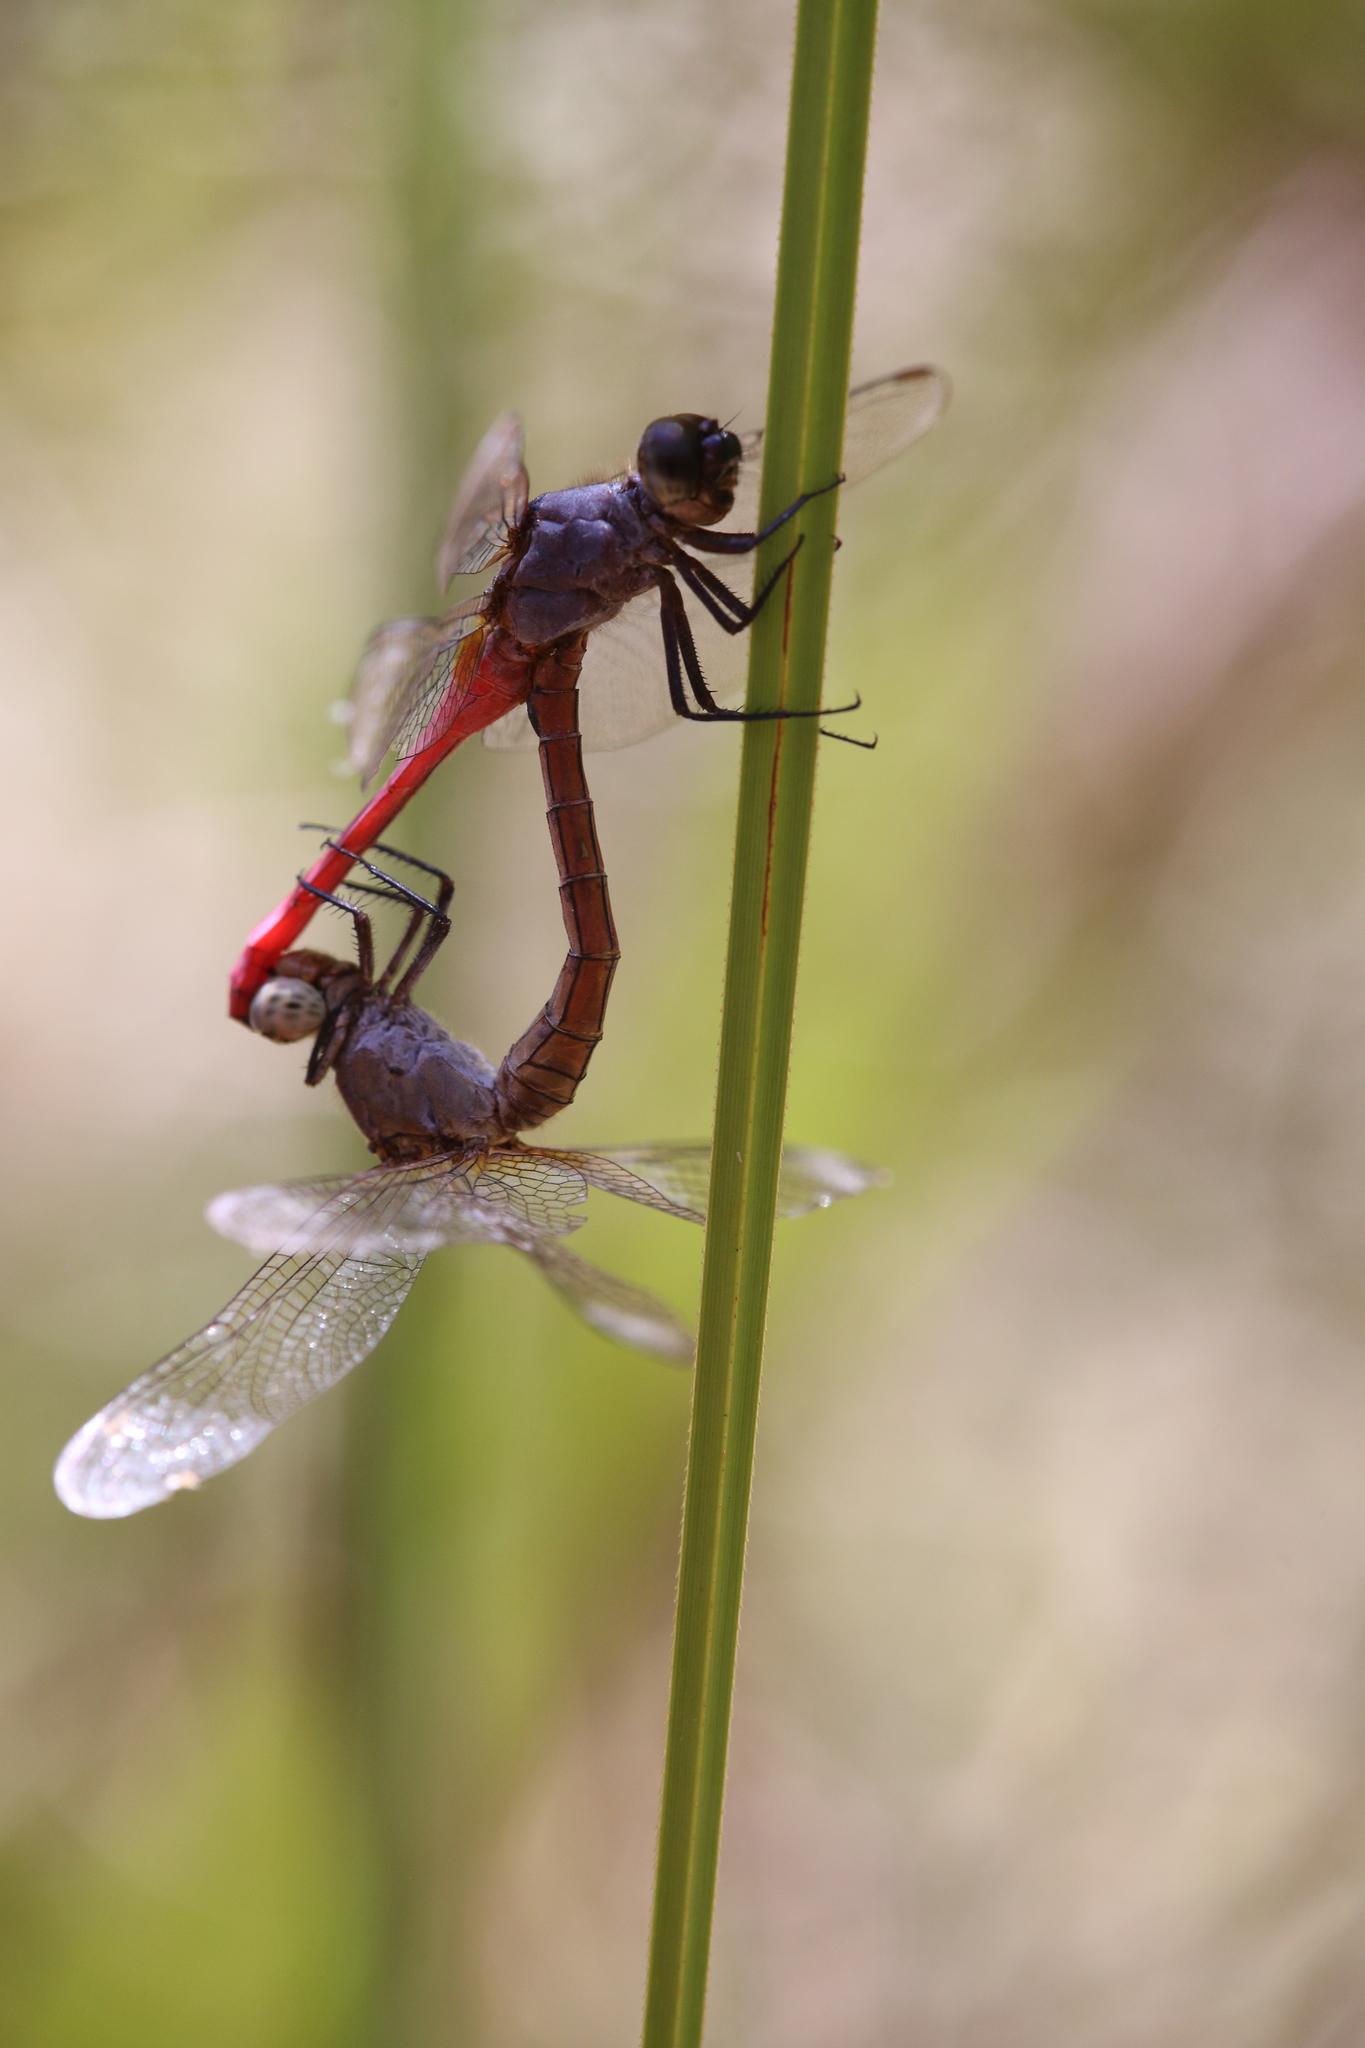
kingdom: Animalia
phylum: Arthropoda
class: Insecta
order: Odonata
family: Libellulidae
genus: Orthetrum
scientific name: Orthetrum migratum
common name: Rosy skimmer
